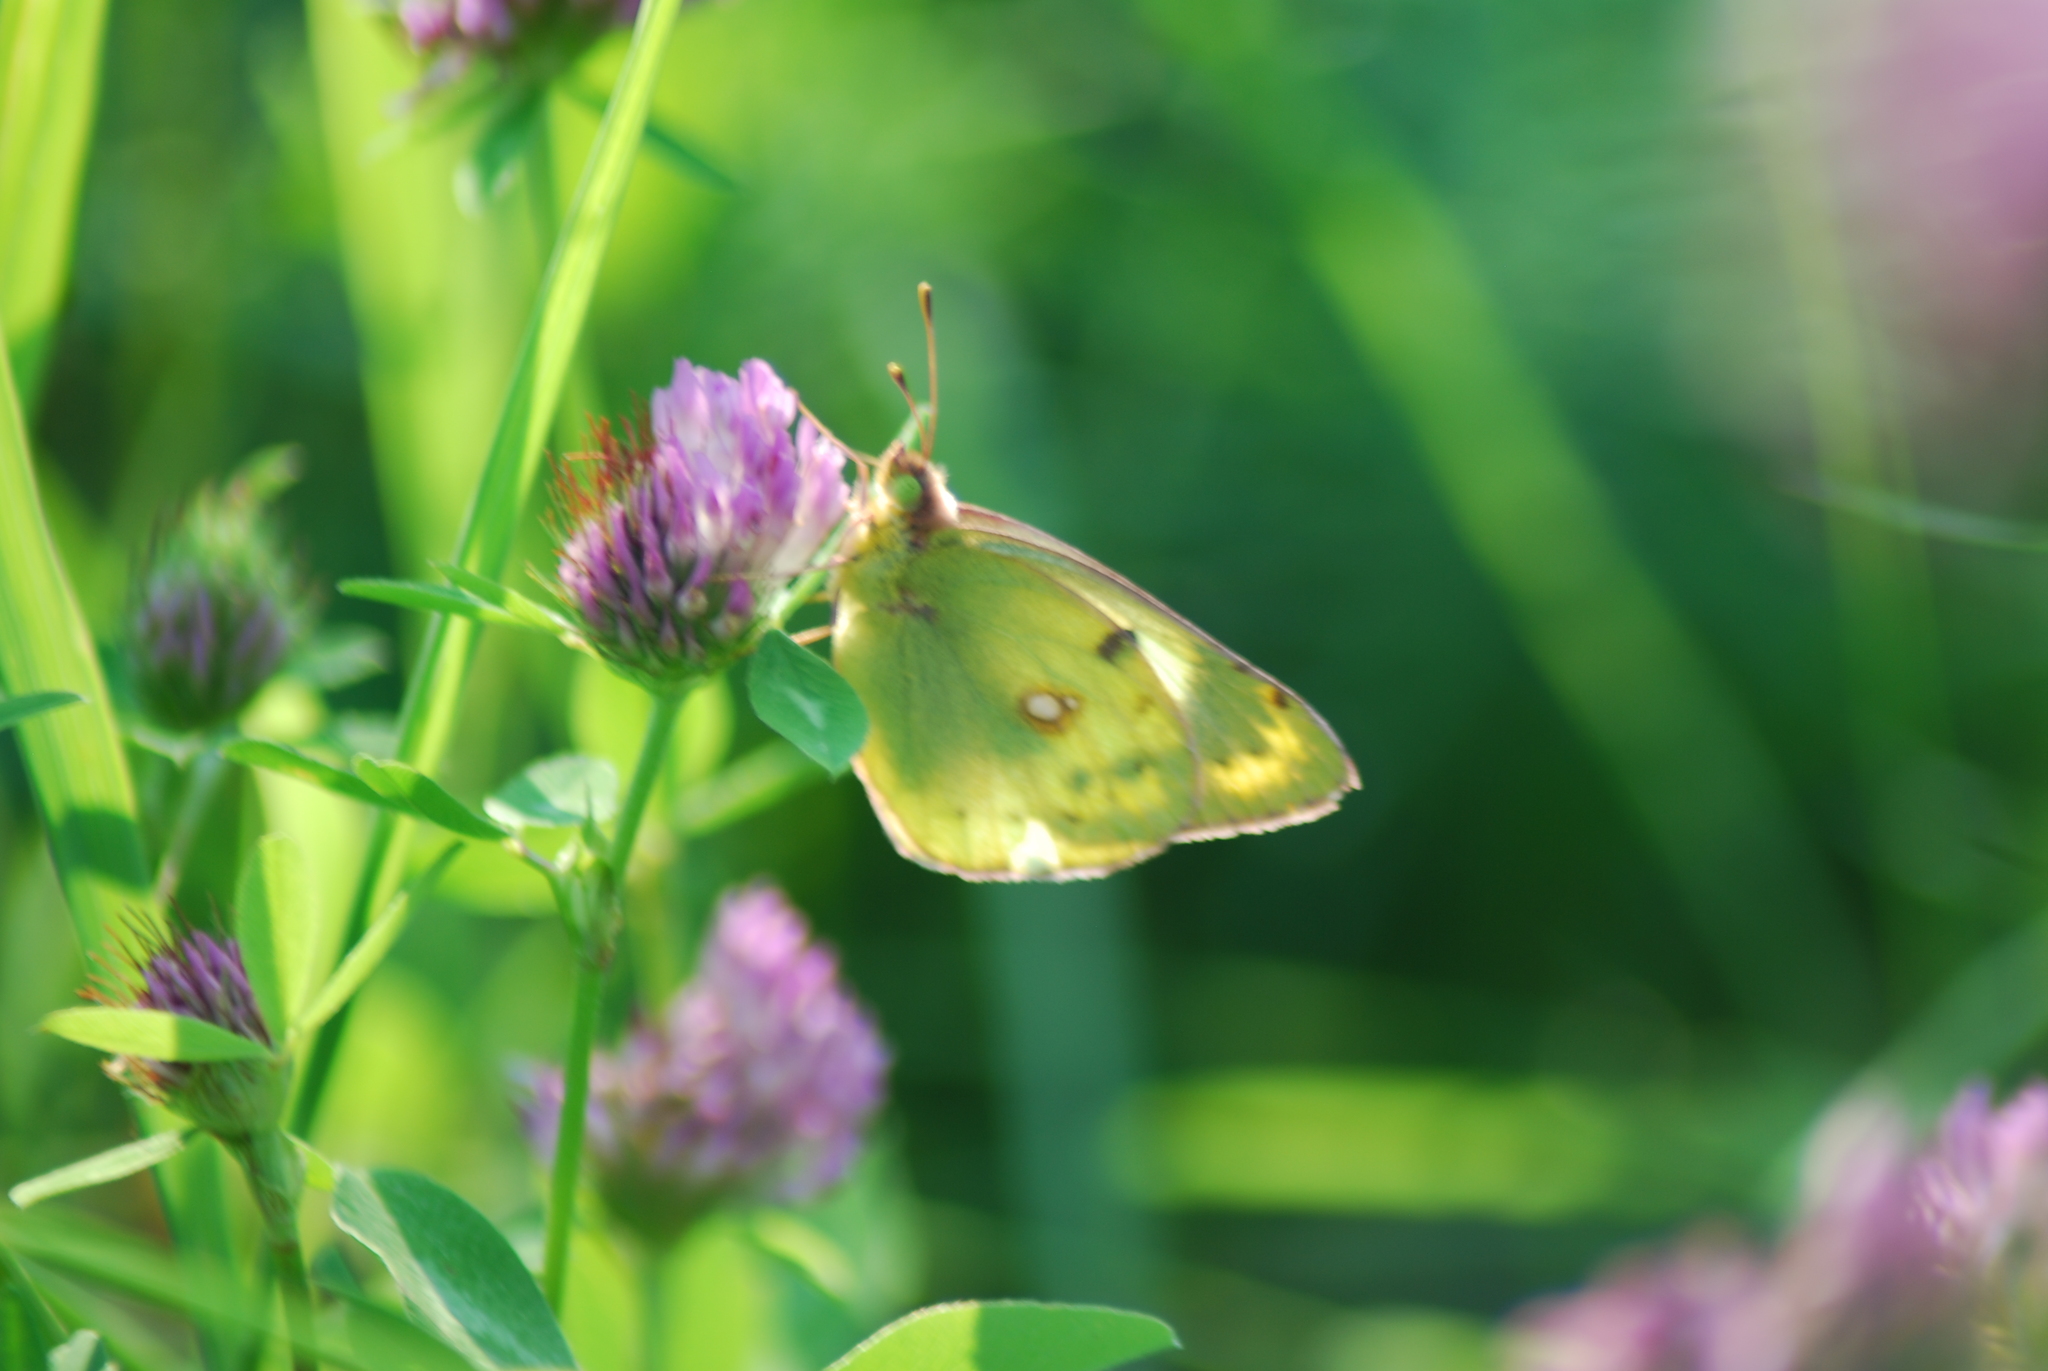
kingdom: Animalia
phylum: Arthropoda
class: Insecta
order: Lepidoptera
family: Pieridae
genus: Colias
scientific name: Colias croceus
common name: Clouded yellow
